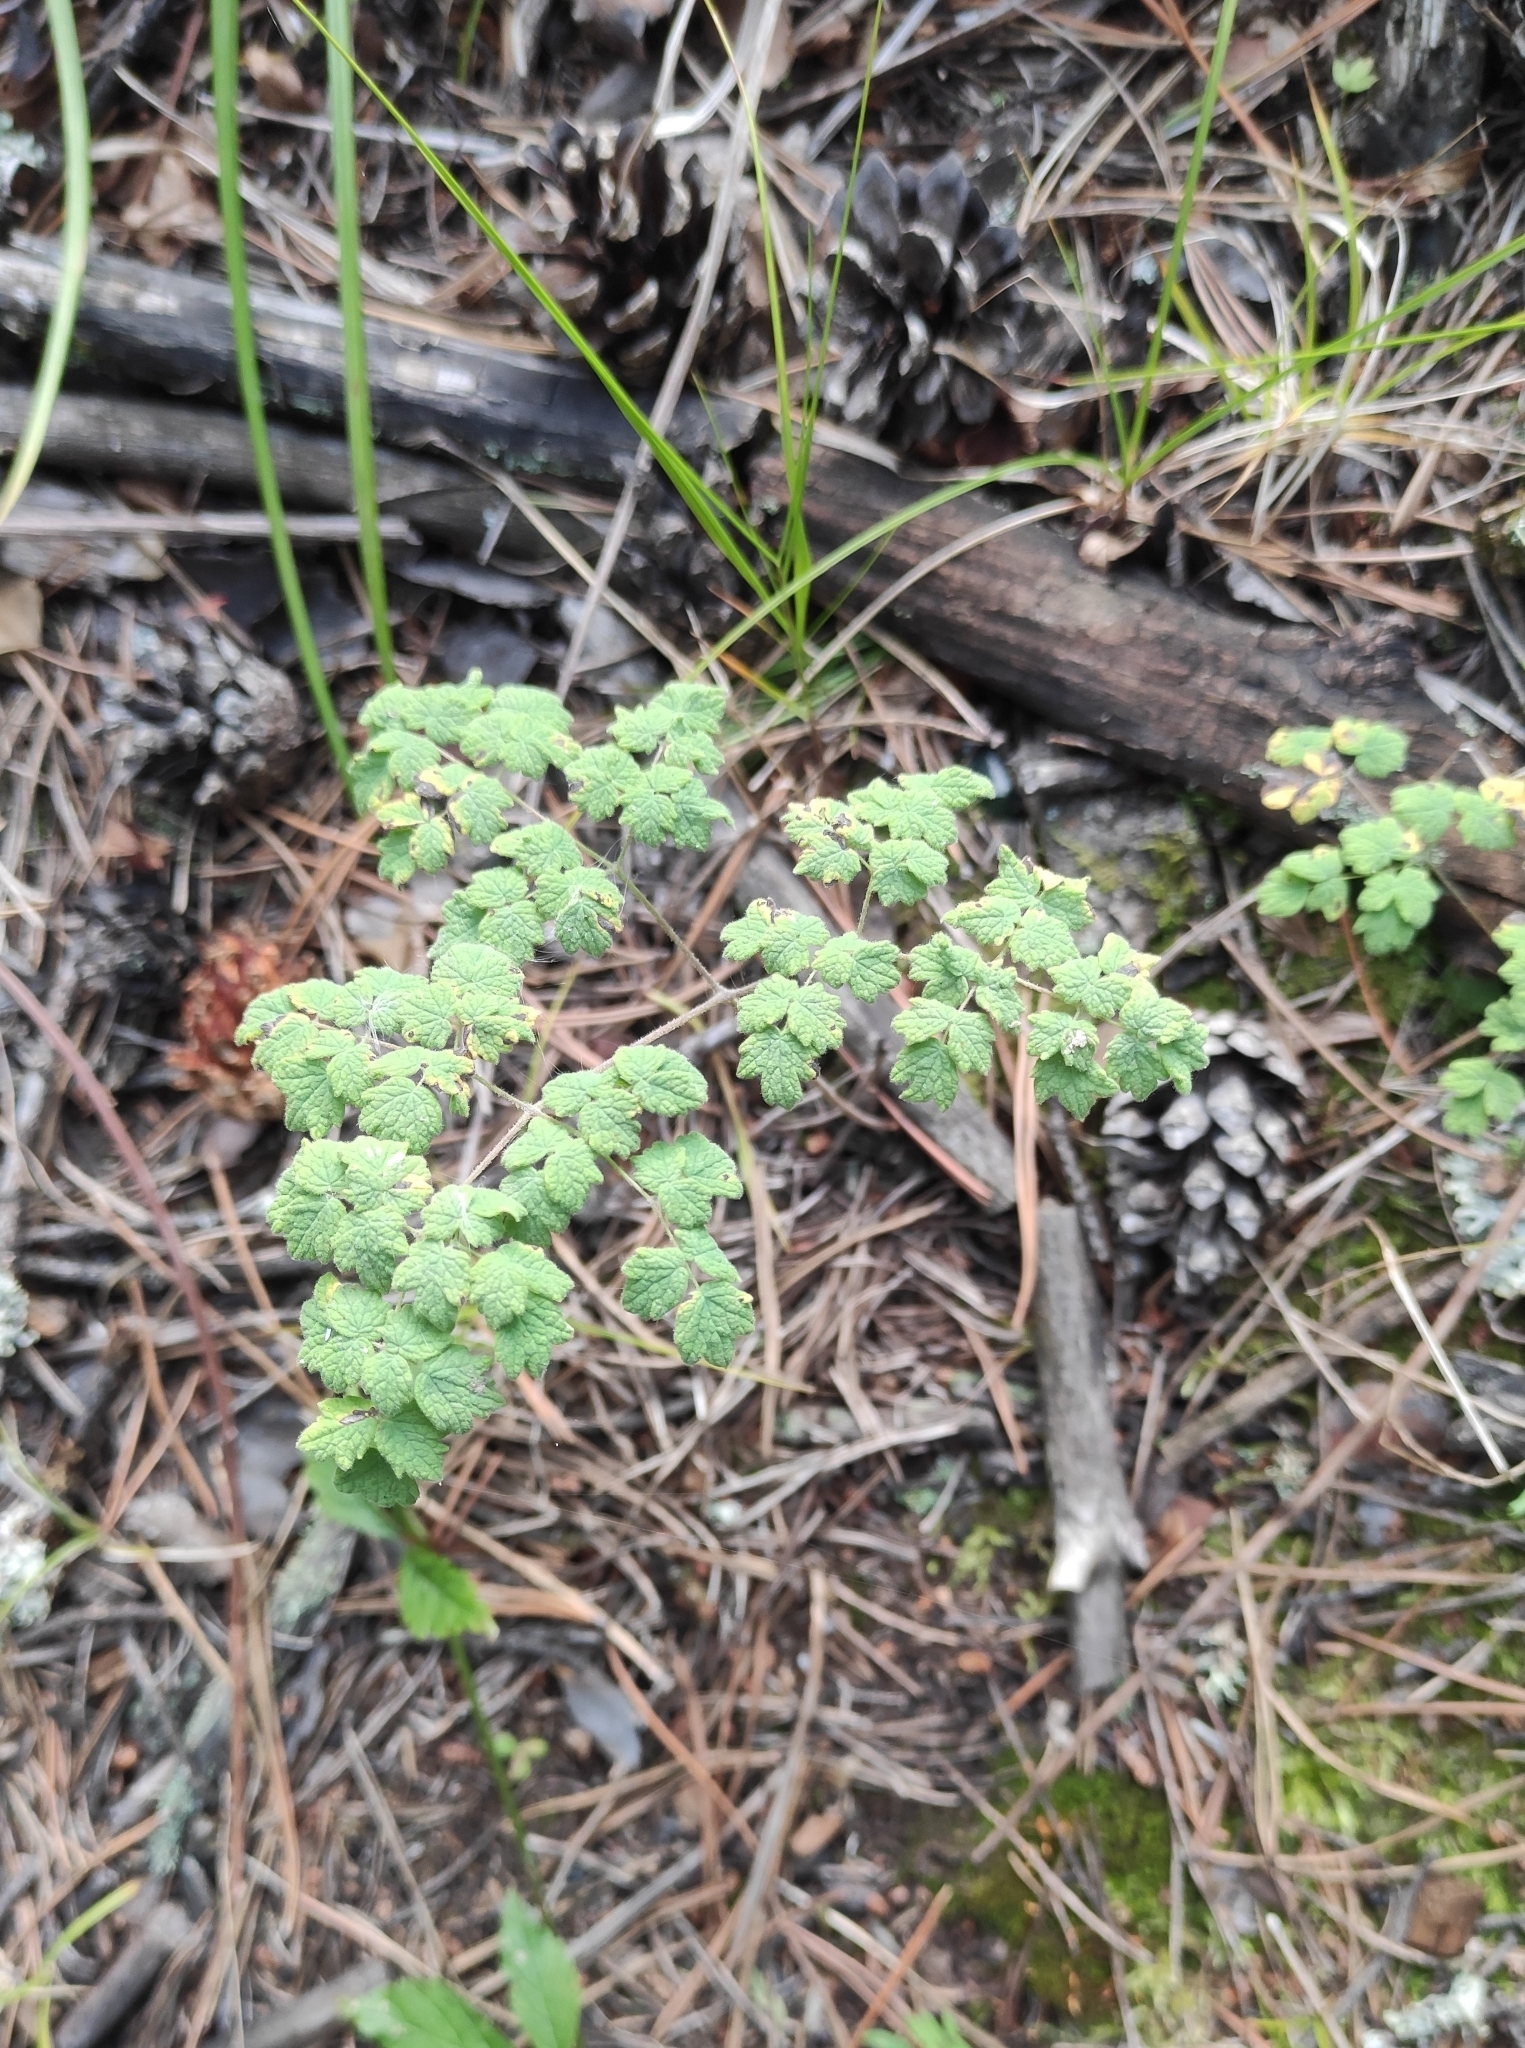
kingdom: Plantae
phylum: Tracheophyta
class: Magnoliopsida
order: Ranunculales
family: Ranunculaceae
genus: Thalictrum
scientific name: Thalictrum foetidum
